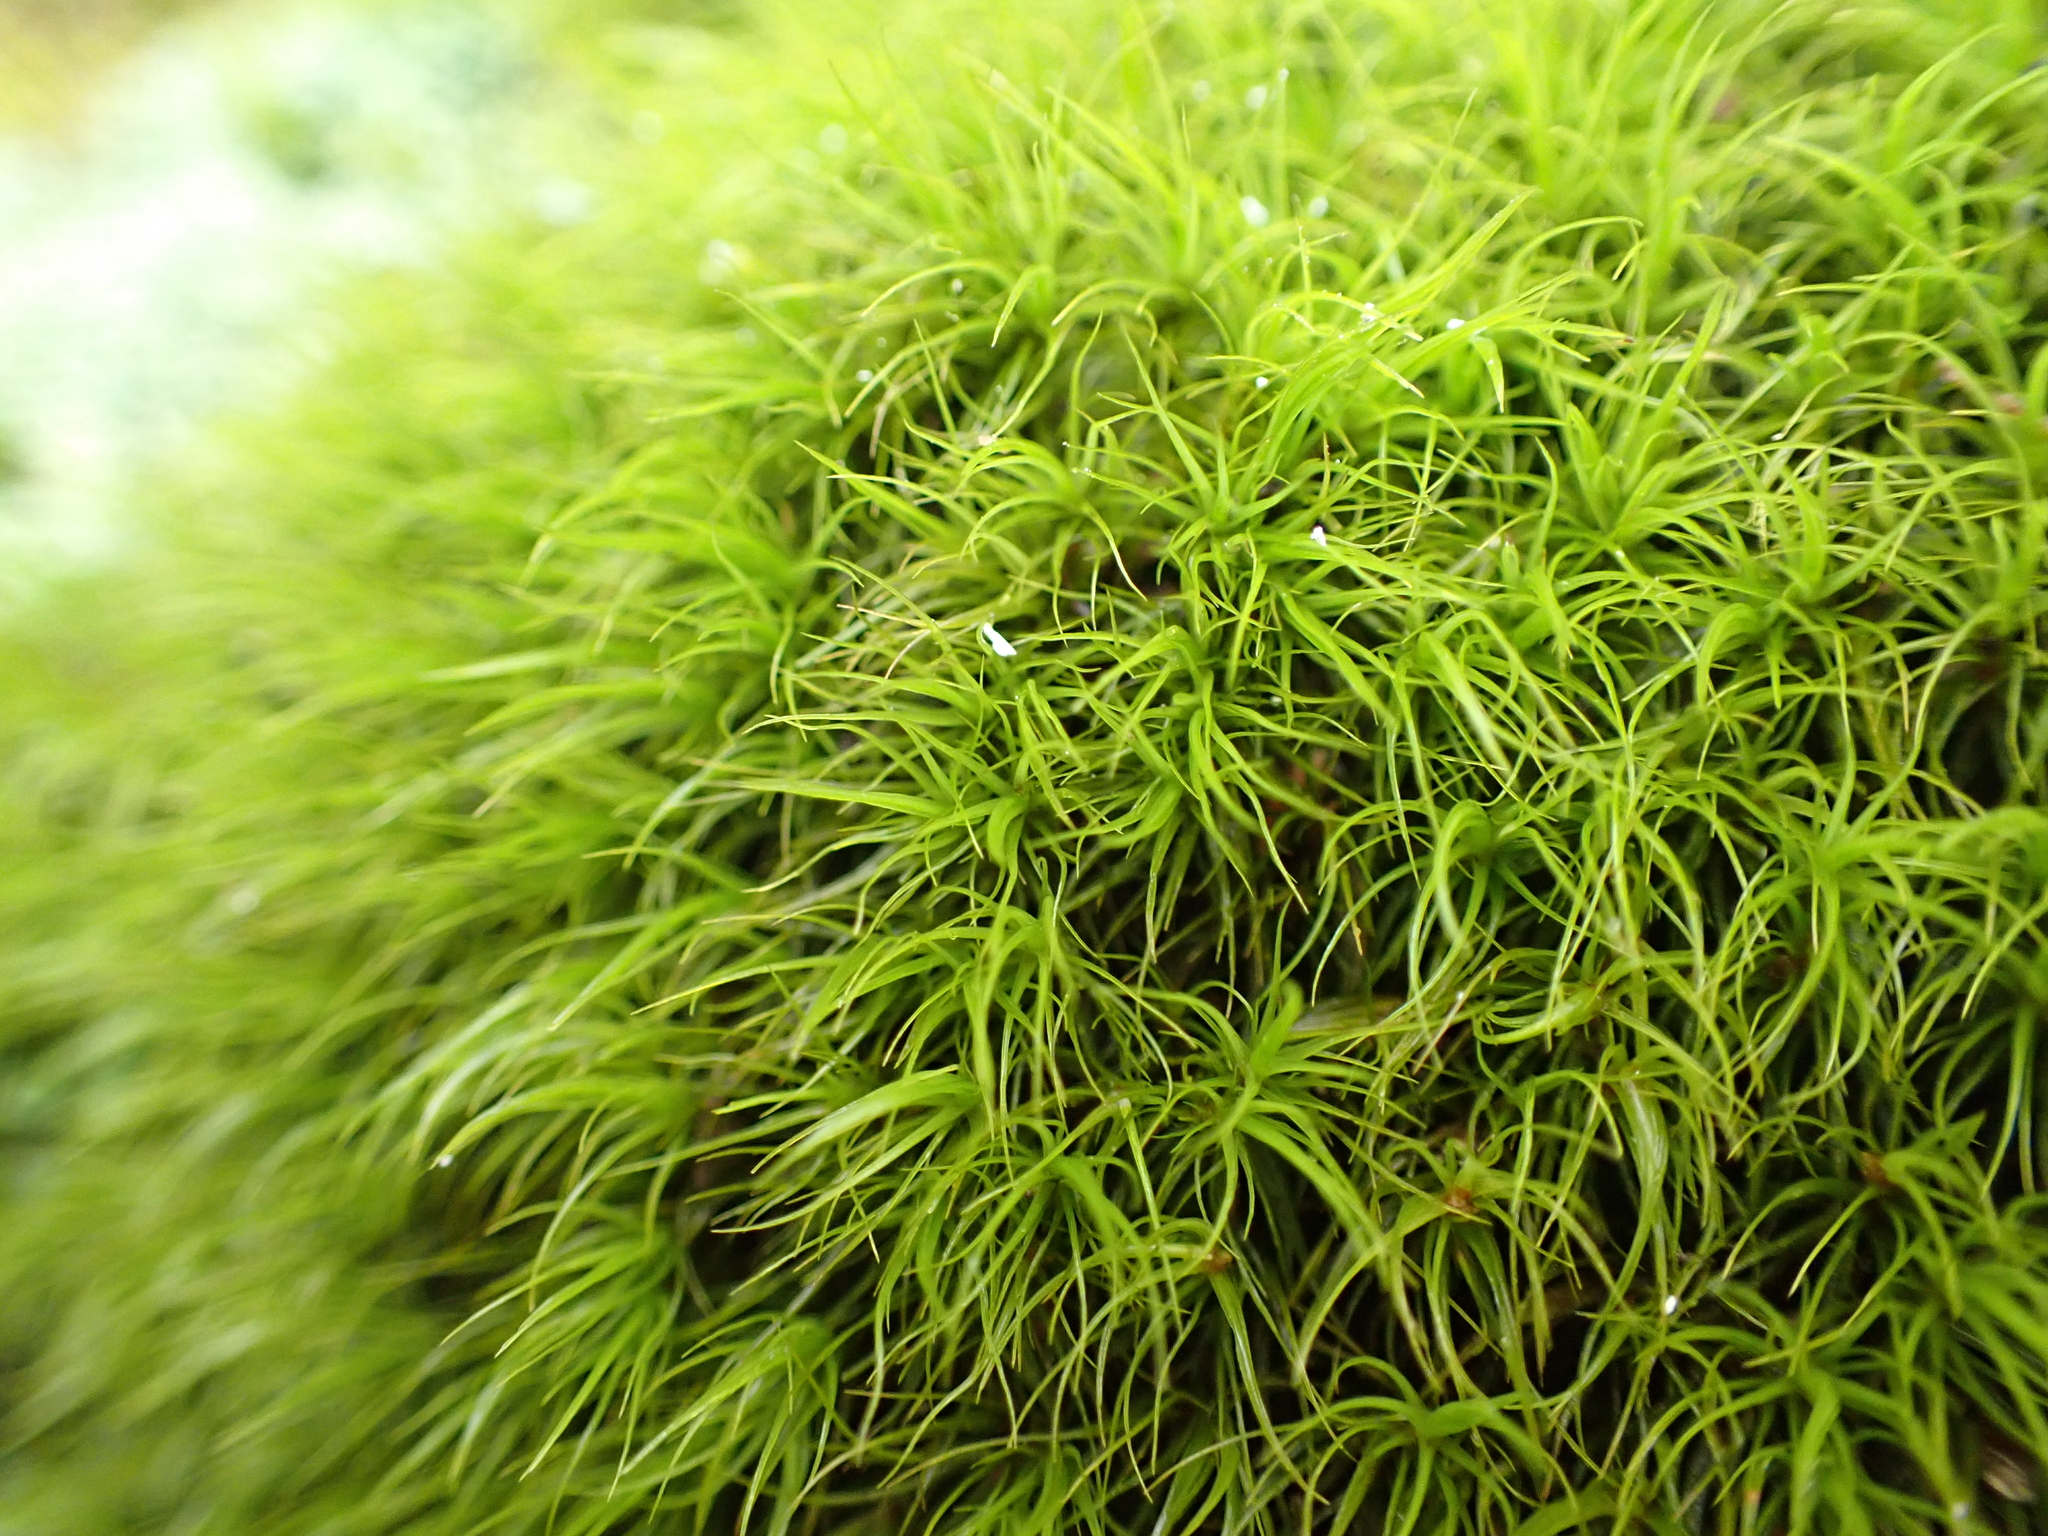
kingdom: Plantae
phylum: Bryophyta
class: Bryopsida
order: Dicranales
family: Dicranaceae
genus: Dicranum
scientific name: Dicranum scoparium
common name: Broom fork-moss
